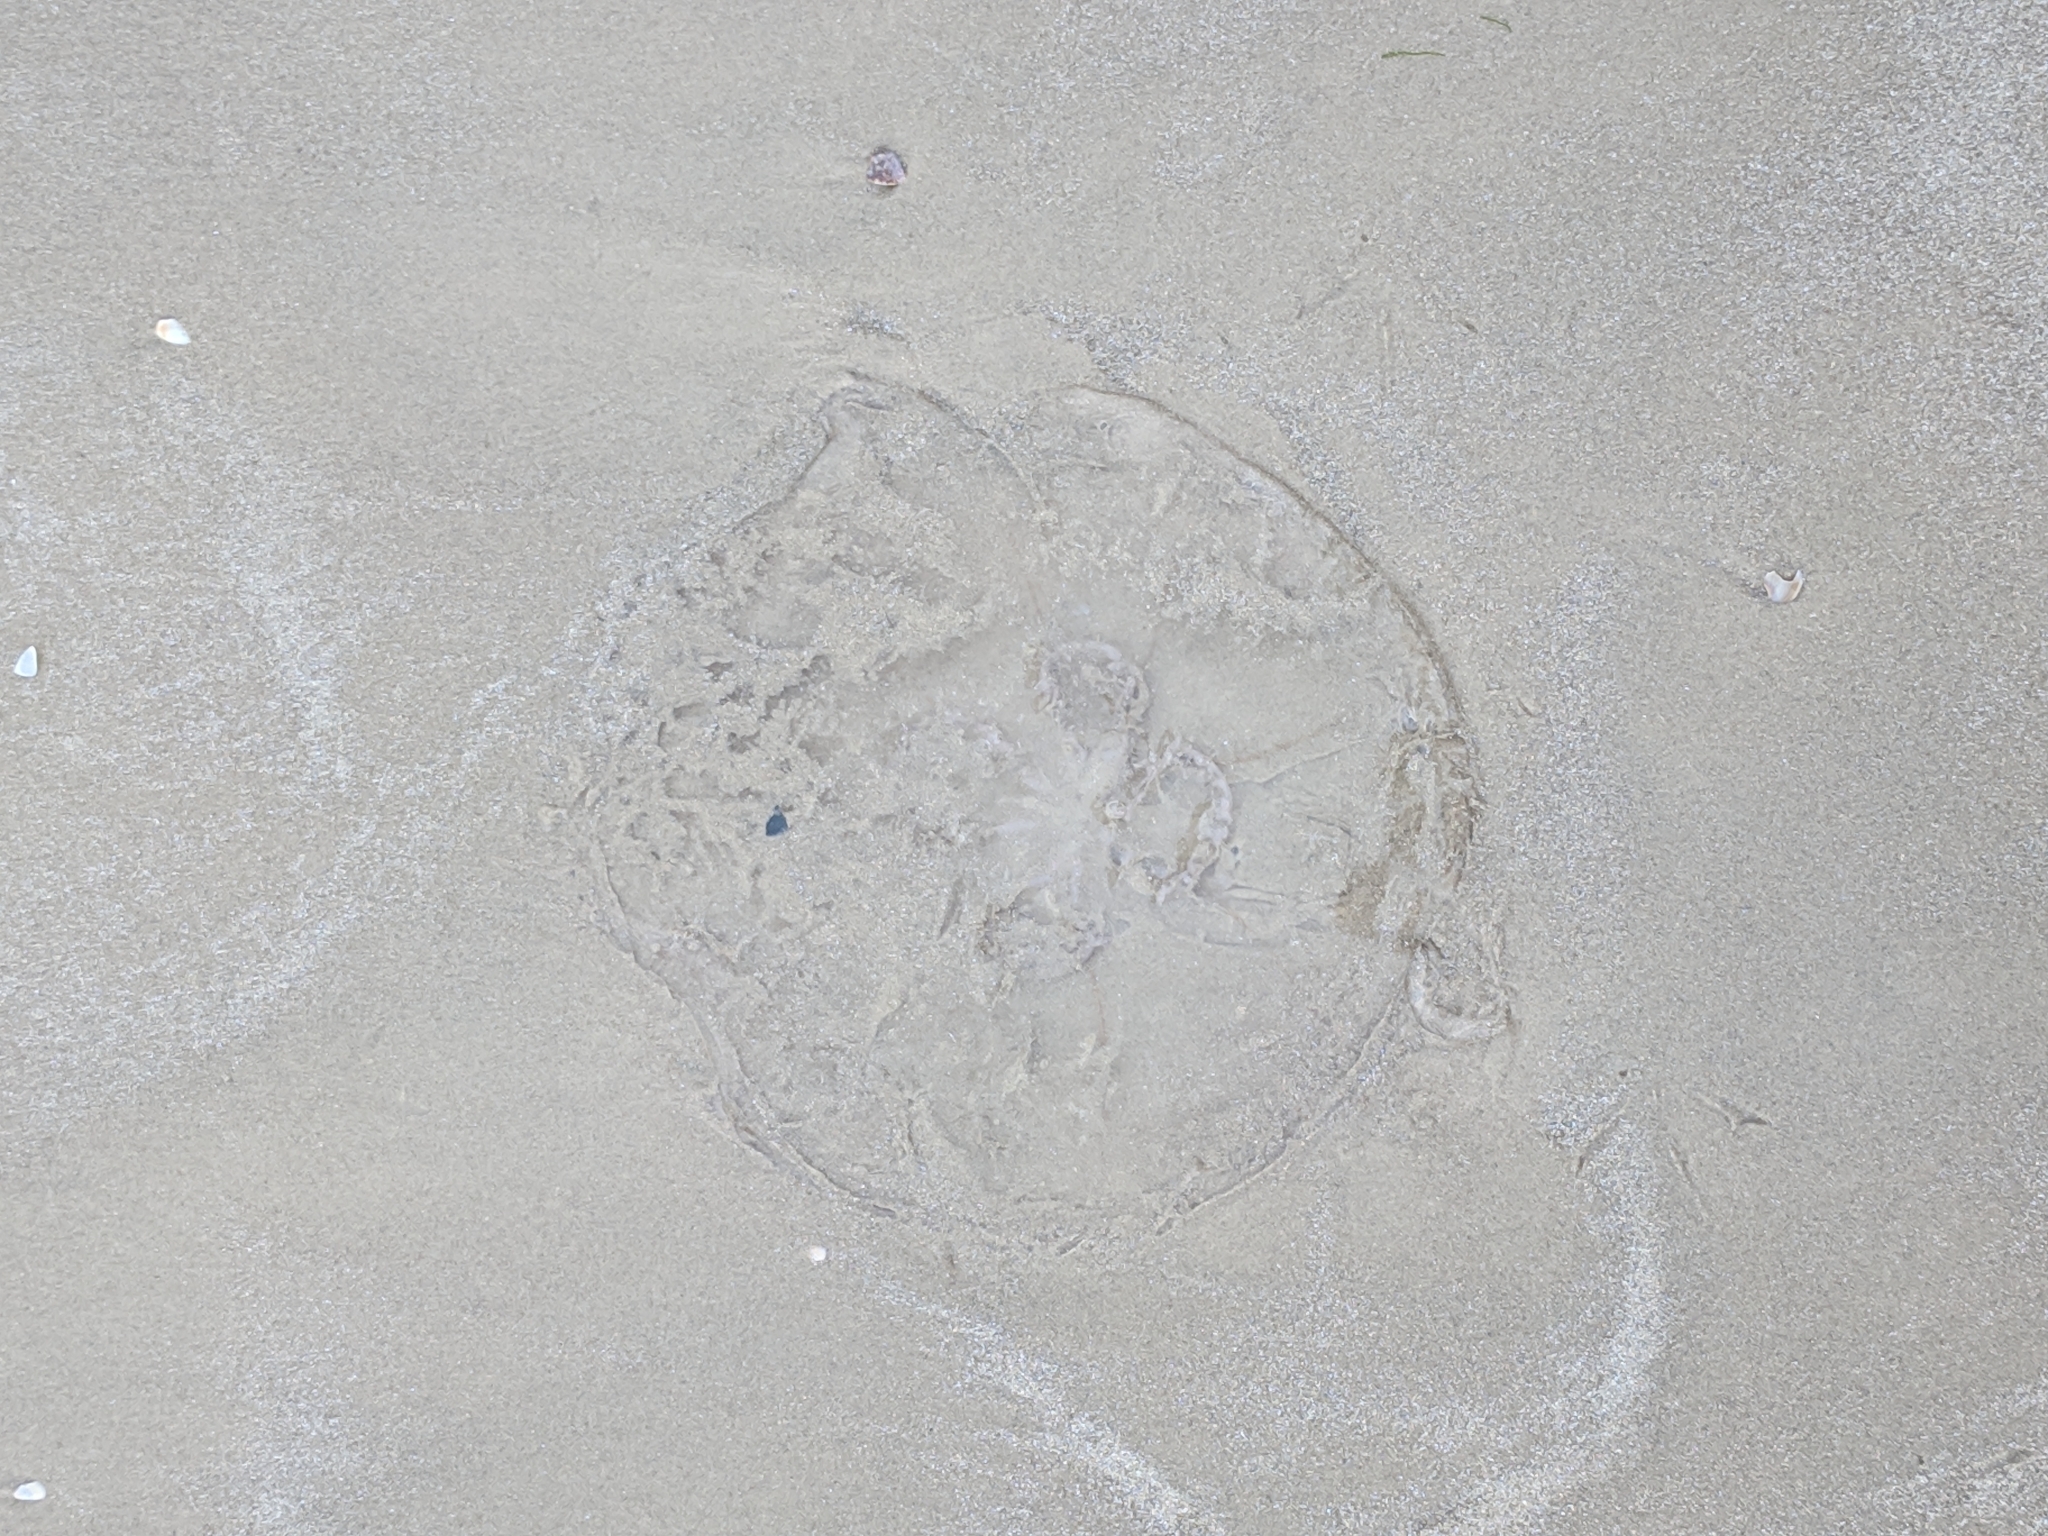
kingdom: Animalia
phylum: Cnidaria
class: Scyphozoa
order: Semaeostomeae
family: Ulmaridae
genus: Aurelia
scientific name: Aurelia marginalis
